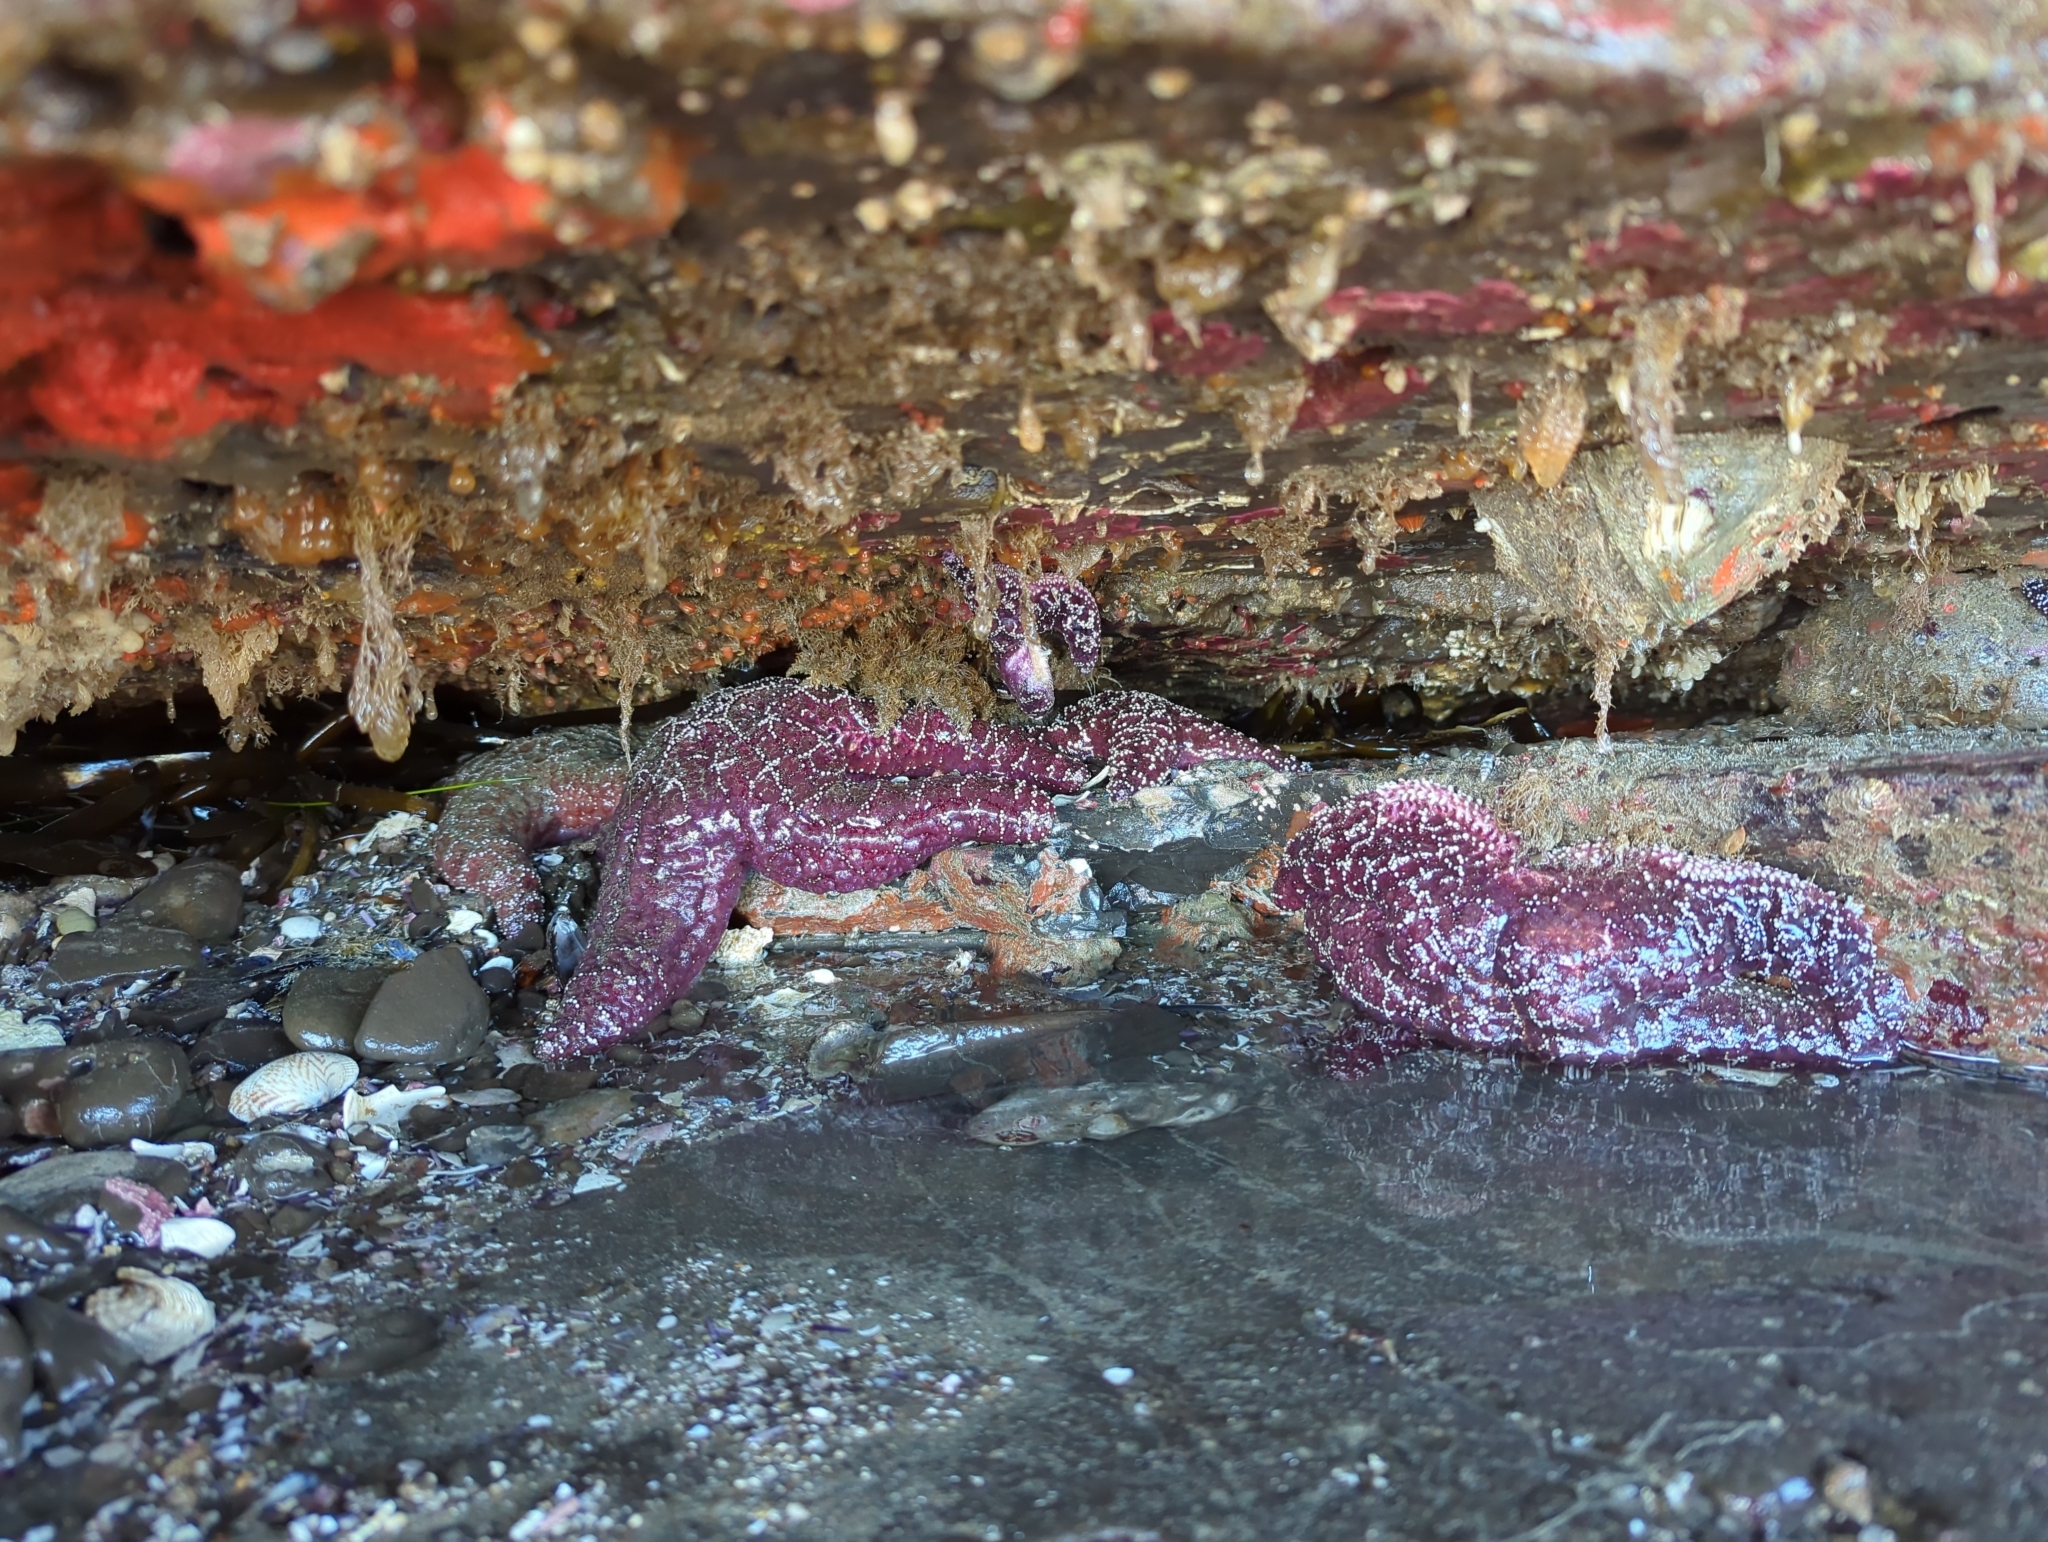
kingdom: Animalia
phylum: Echinodermata
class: Asteroidea
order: Forcipulatida
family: Asteriidae
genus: Pisaster
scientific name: Pisaster ochraceus
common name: Ochre stars
